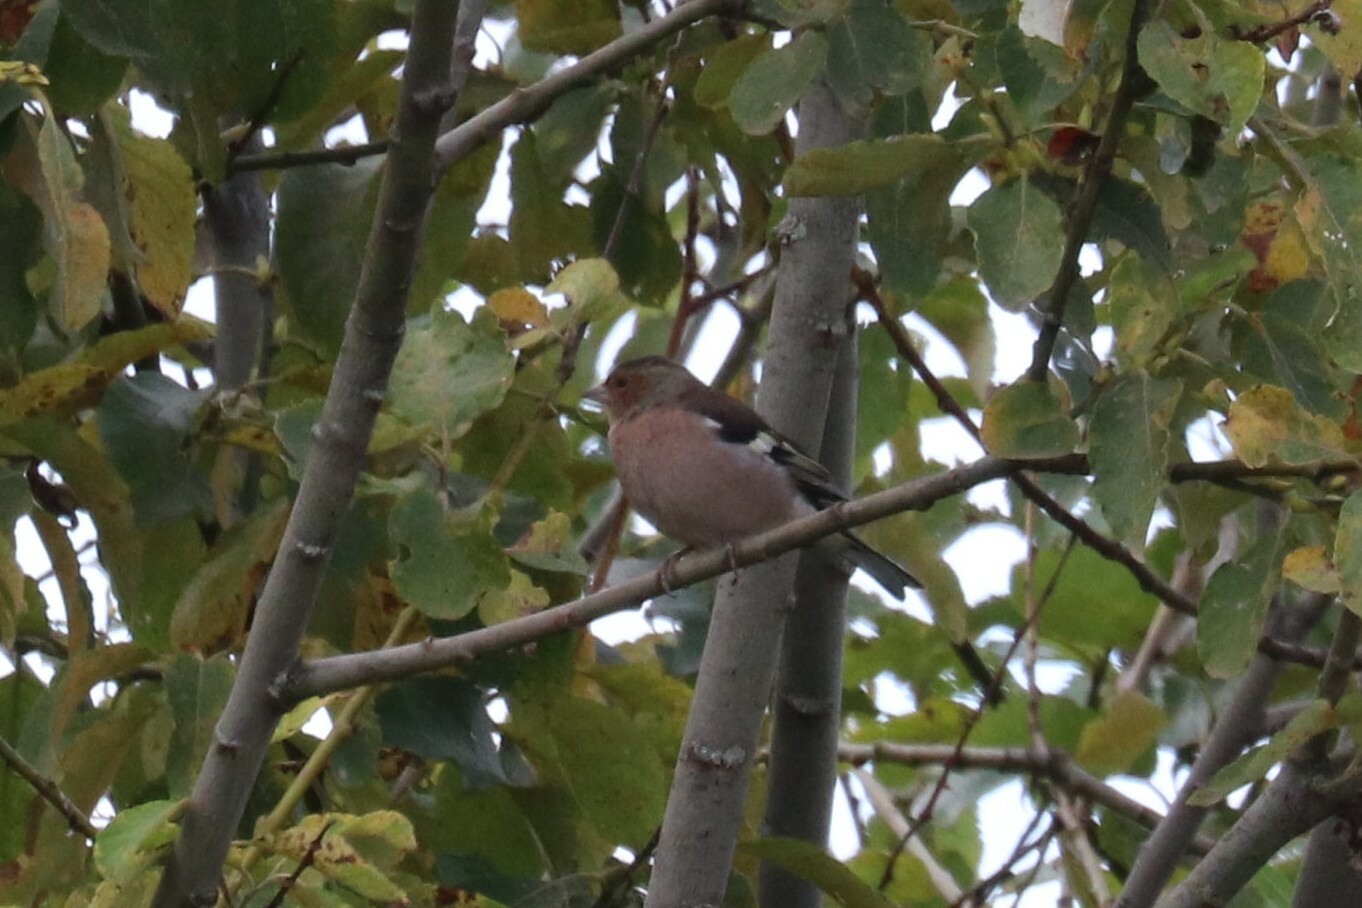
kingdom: Animalia
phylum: Chordata
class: Aves
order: Passeriformes
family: Fringillidae
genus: Fringilla
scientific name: Fringilla coelebs
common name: Common chaffinch
